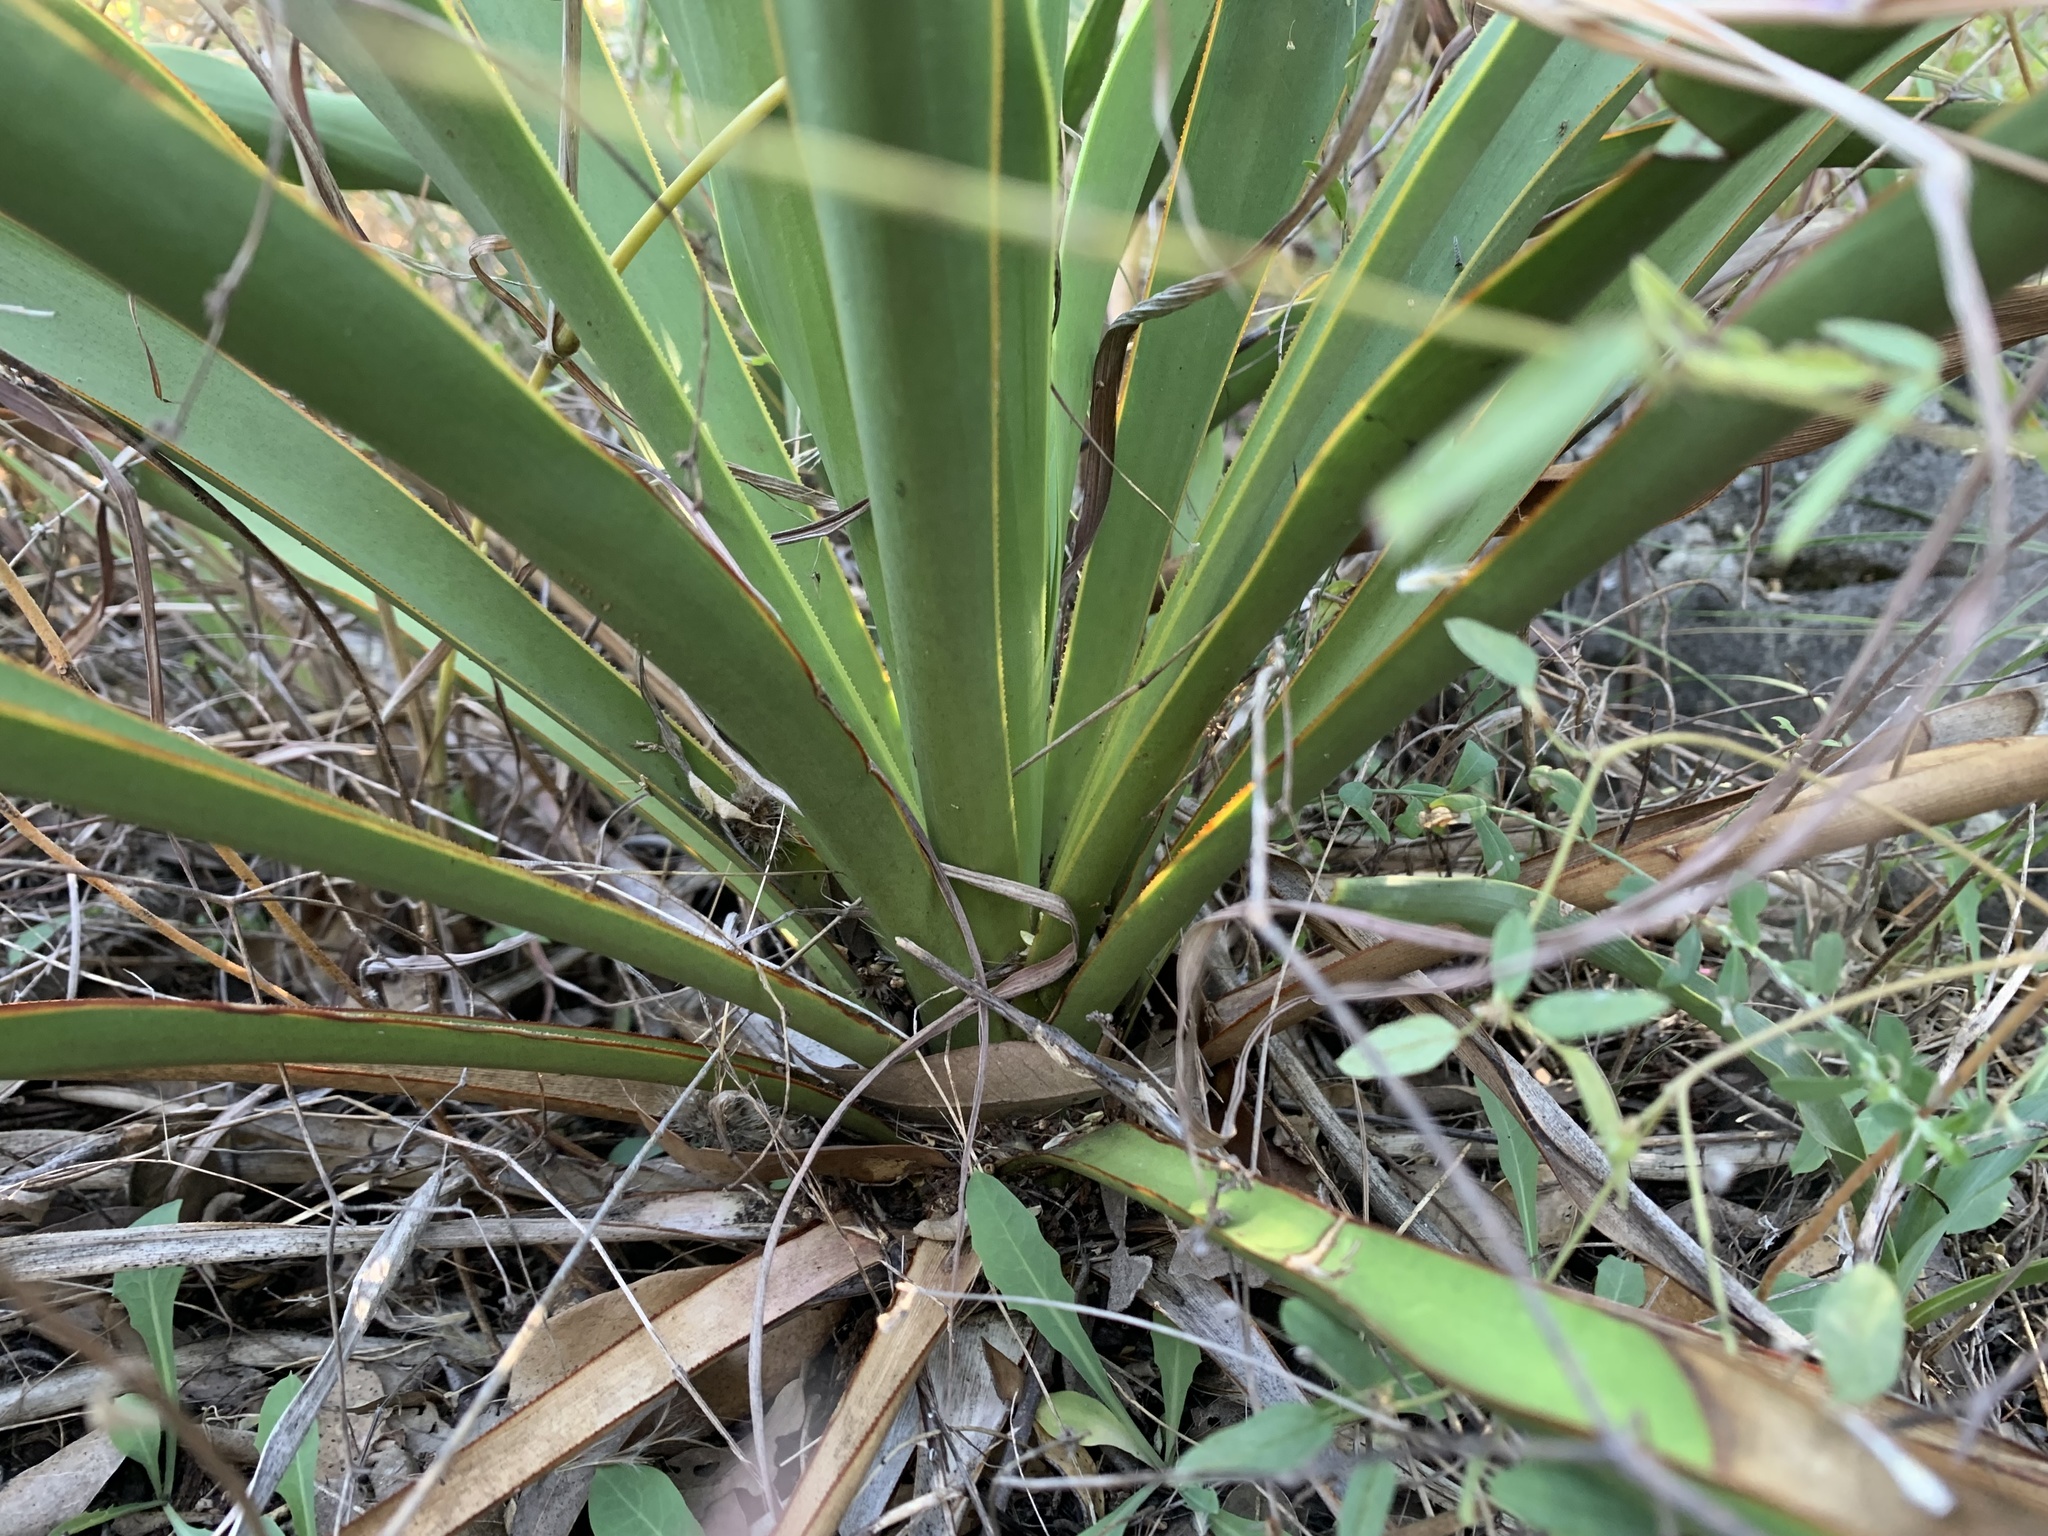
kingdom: Plantae
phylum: Tracheophyta
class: Liliopsida
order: Asparagales
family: Asparagaceae
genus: Yucca
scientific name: Yucca rupicola
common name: Twisted-leaf spanish-dagger
